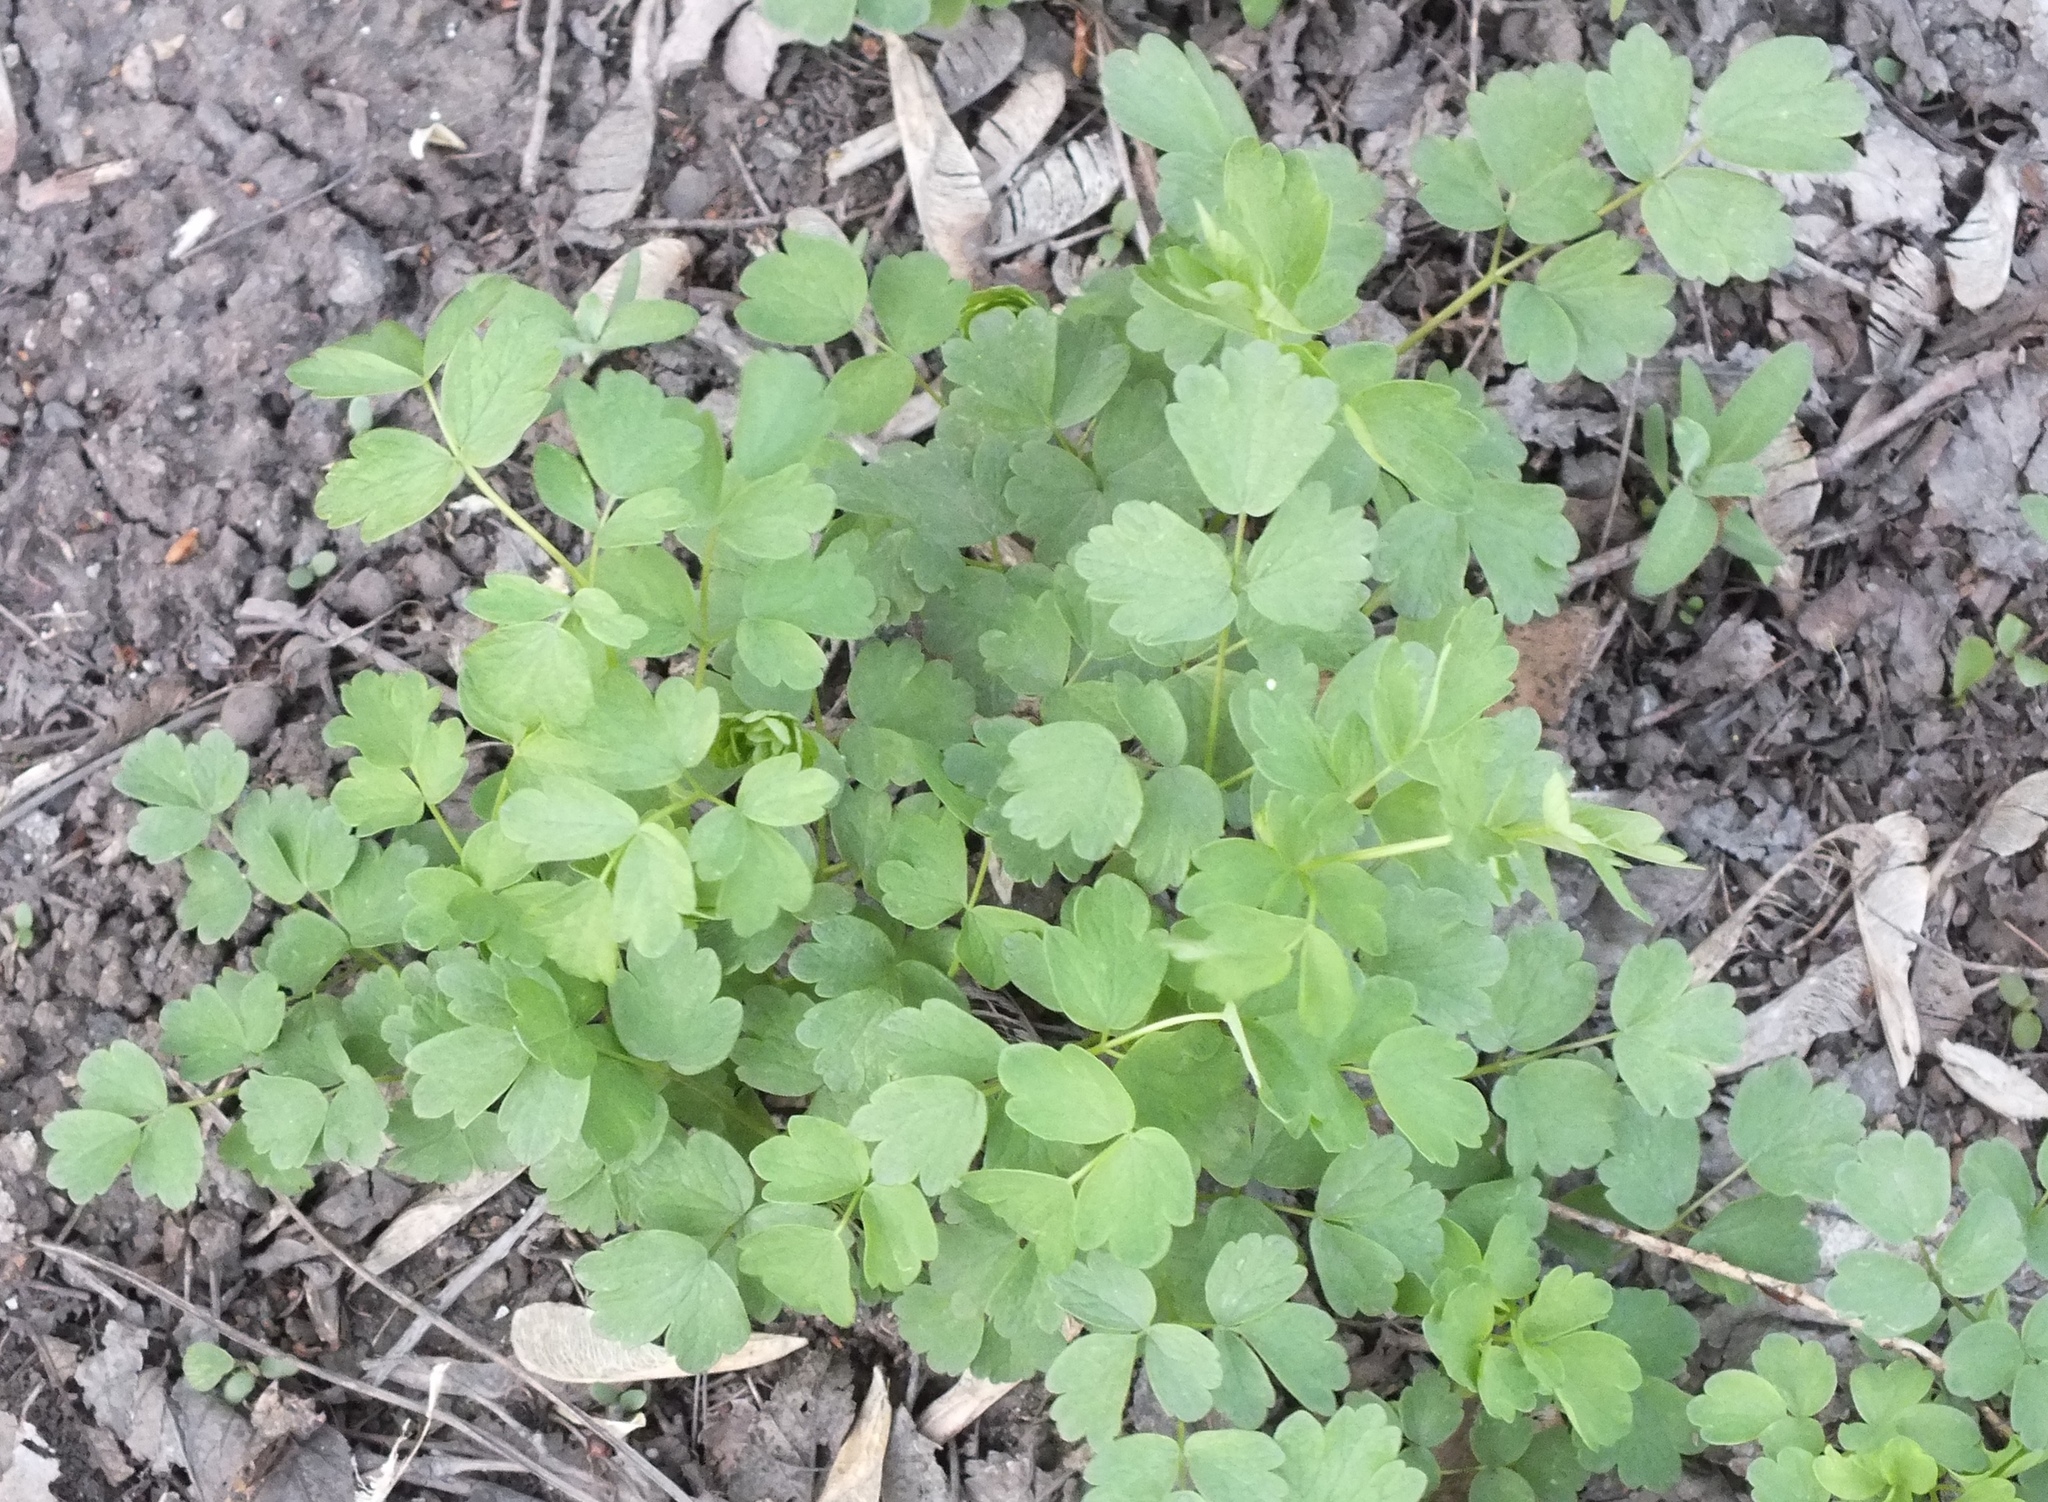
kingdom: Plantae
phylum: Tracheophyta
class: Magnoliopsida
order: Ranunculales
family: Ranunculaceae
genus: Thalictrum
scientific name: Thalictrum minus
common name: Lesser meadow-rue
